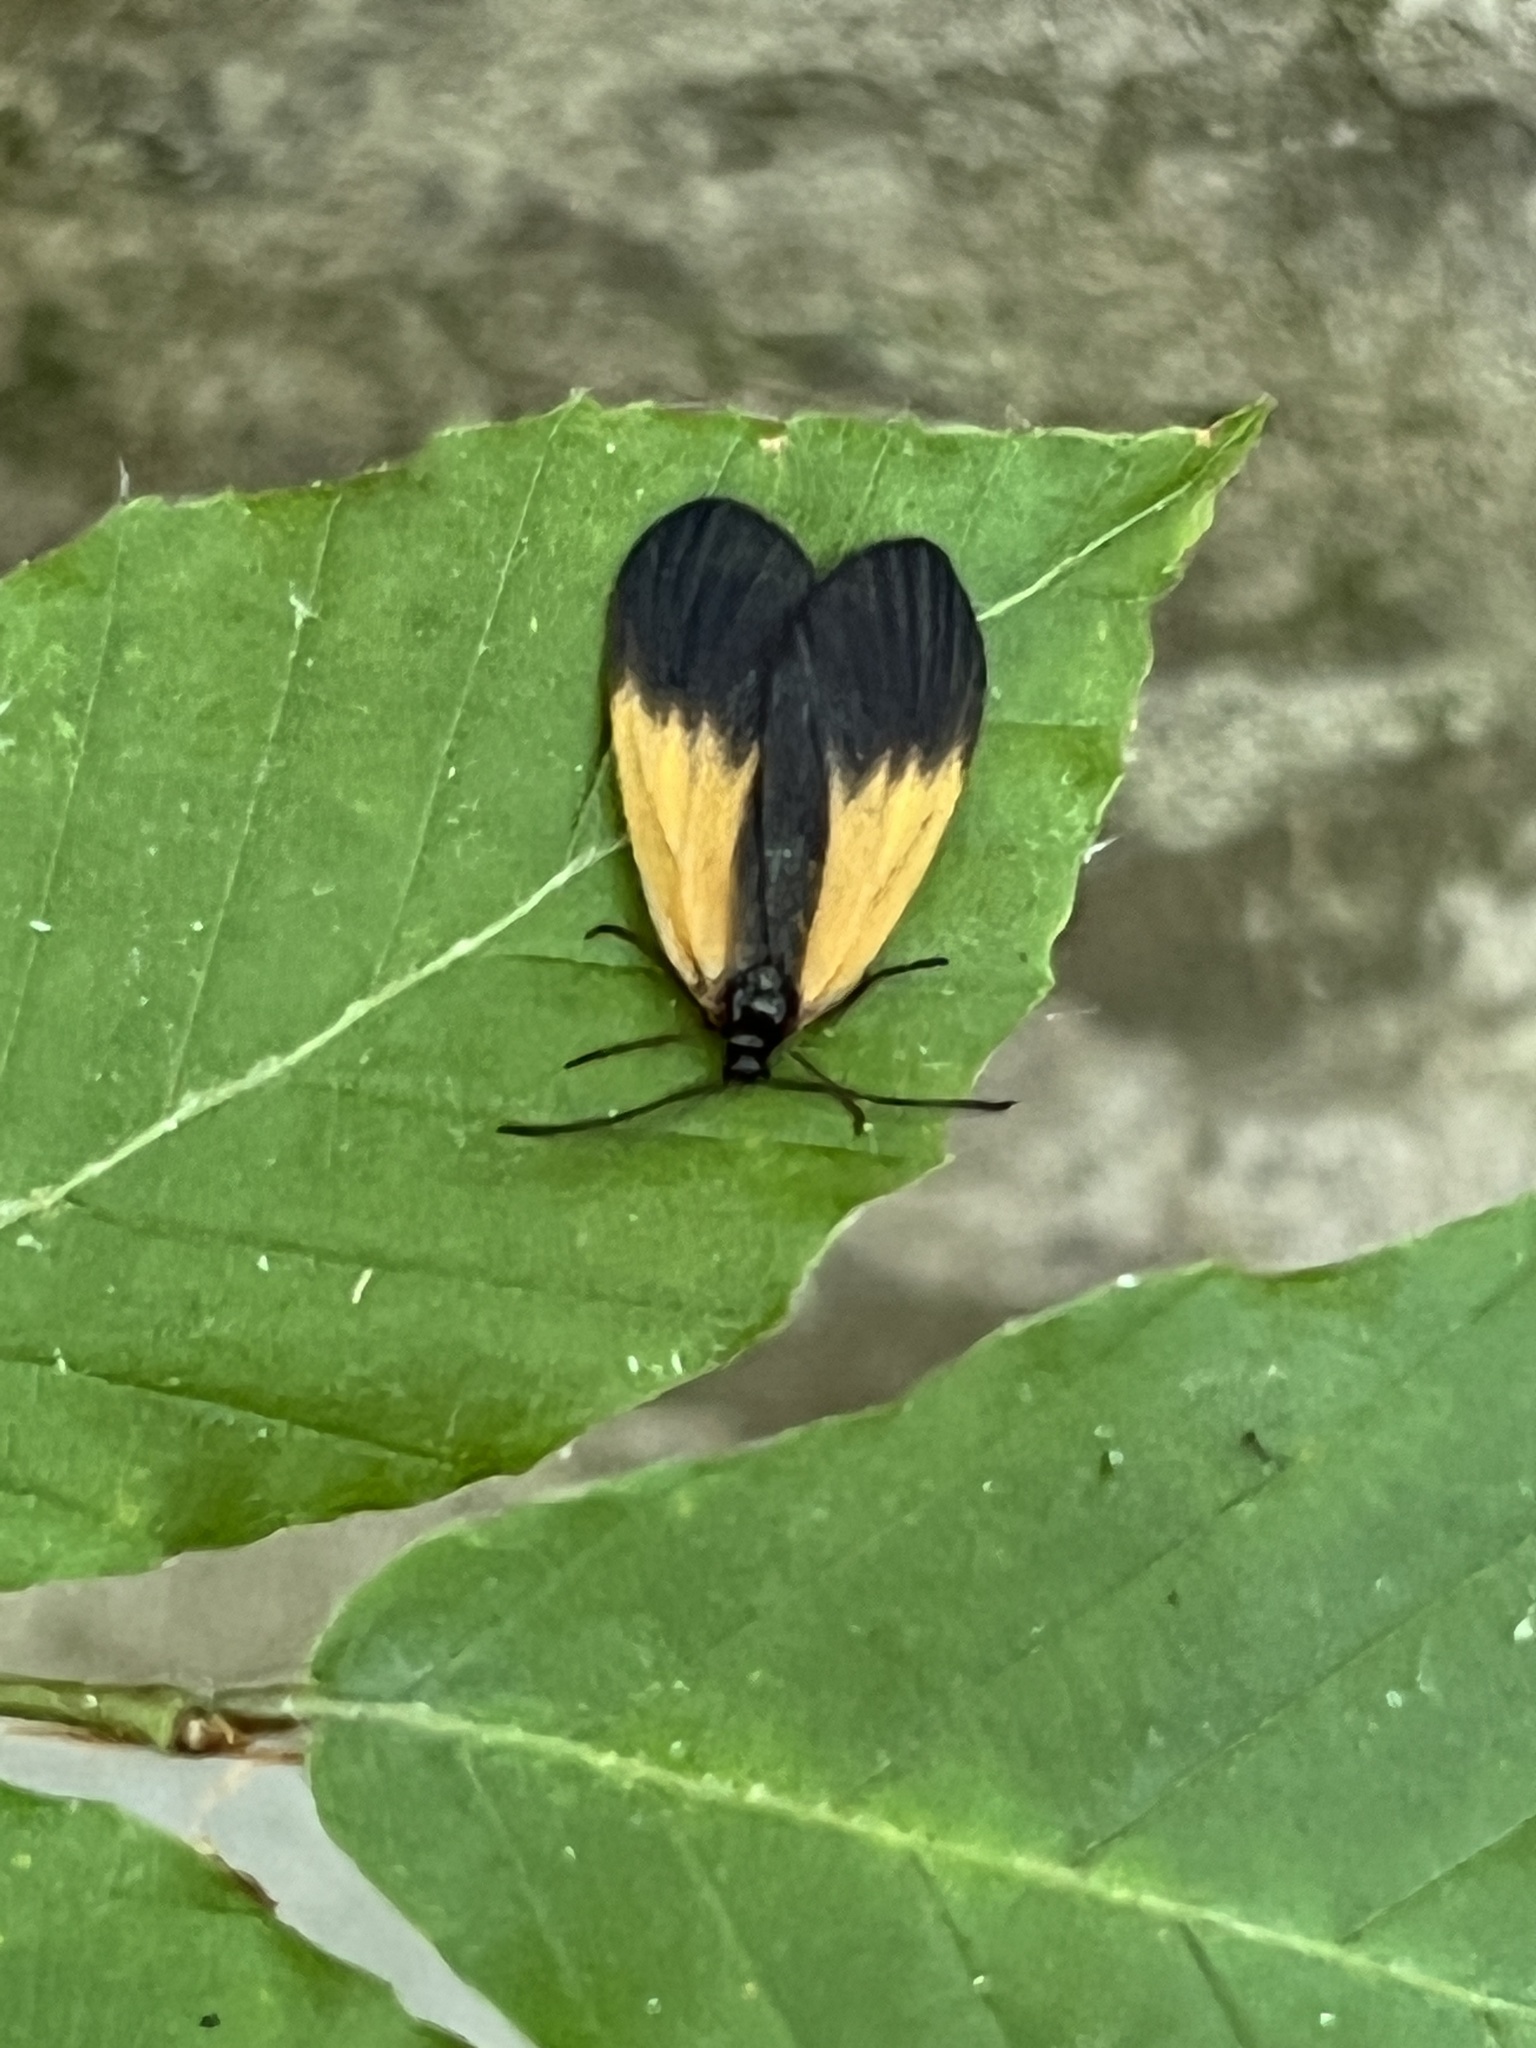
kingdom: Animalia
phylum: Arthropoda
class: Insecta
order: Lepidoptera
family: Zygaenidae
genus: Malthaca
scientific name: Malthaca dimidiata
